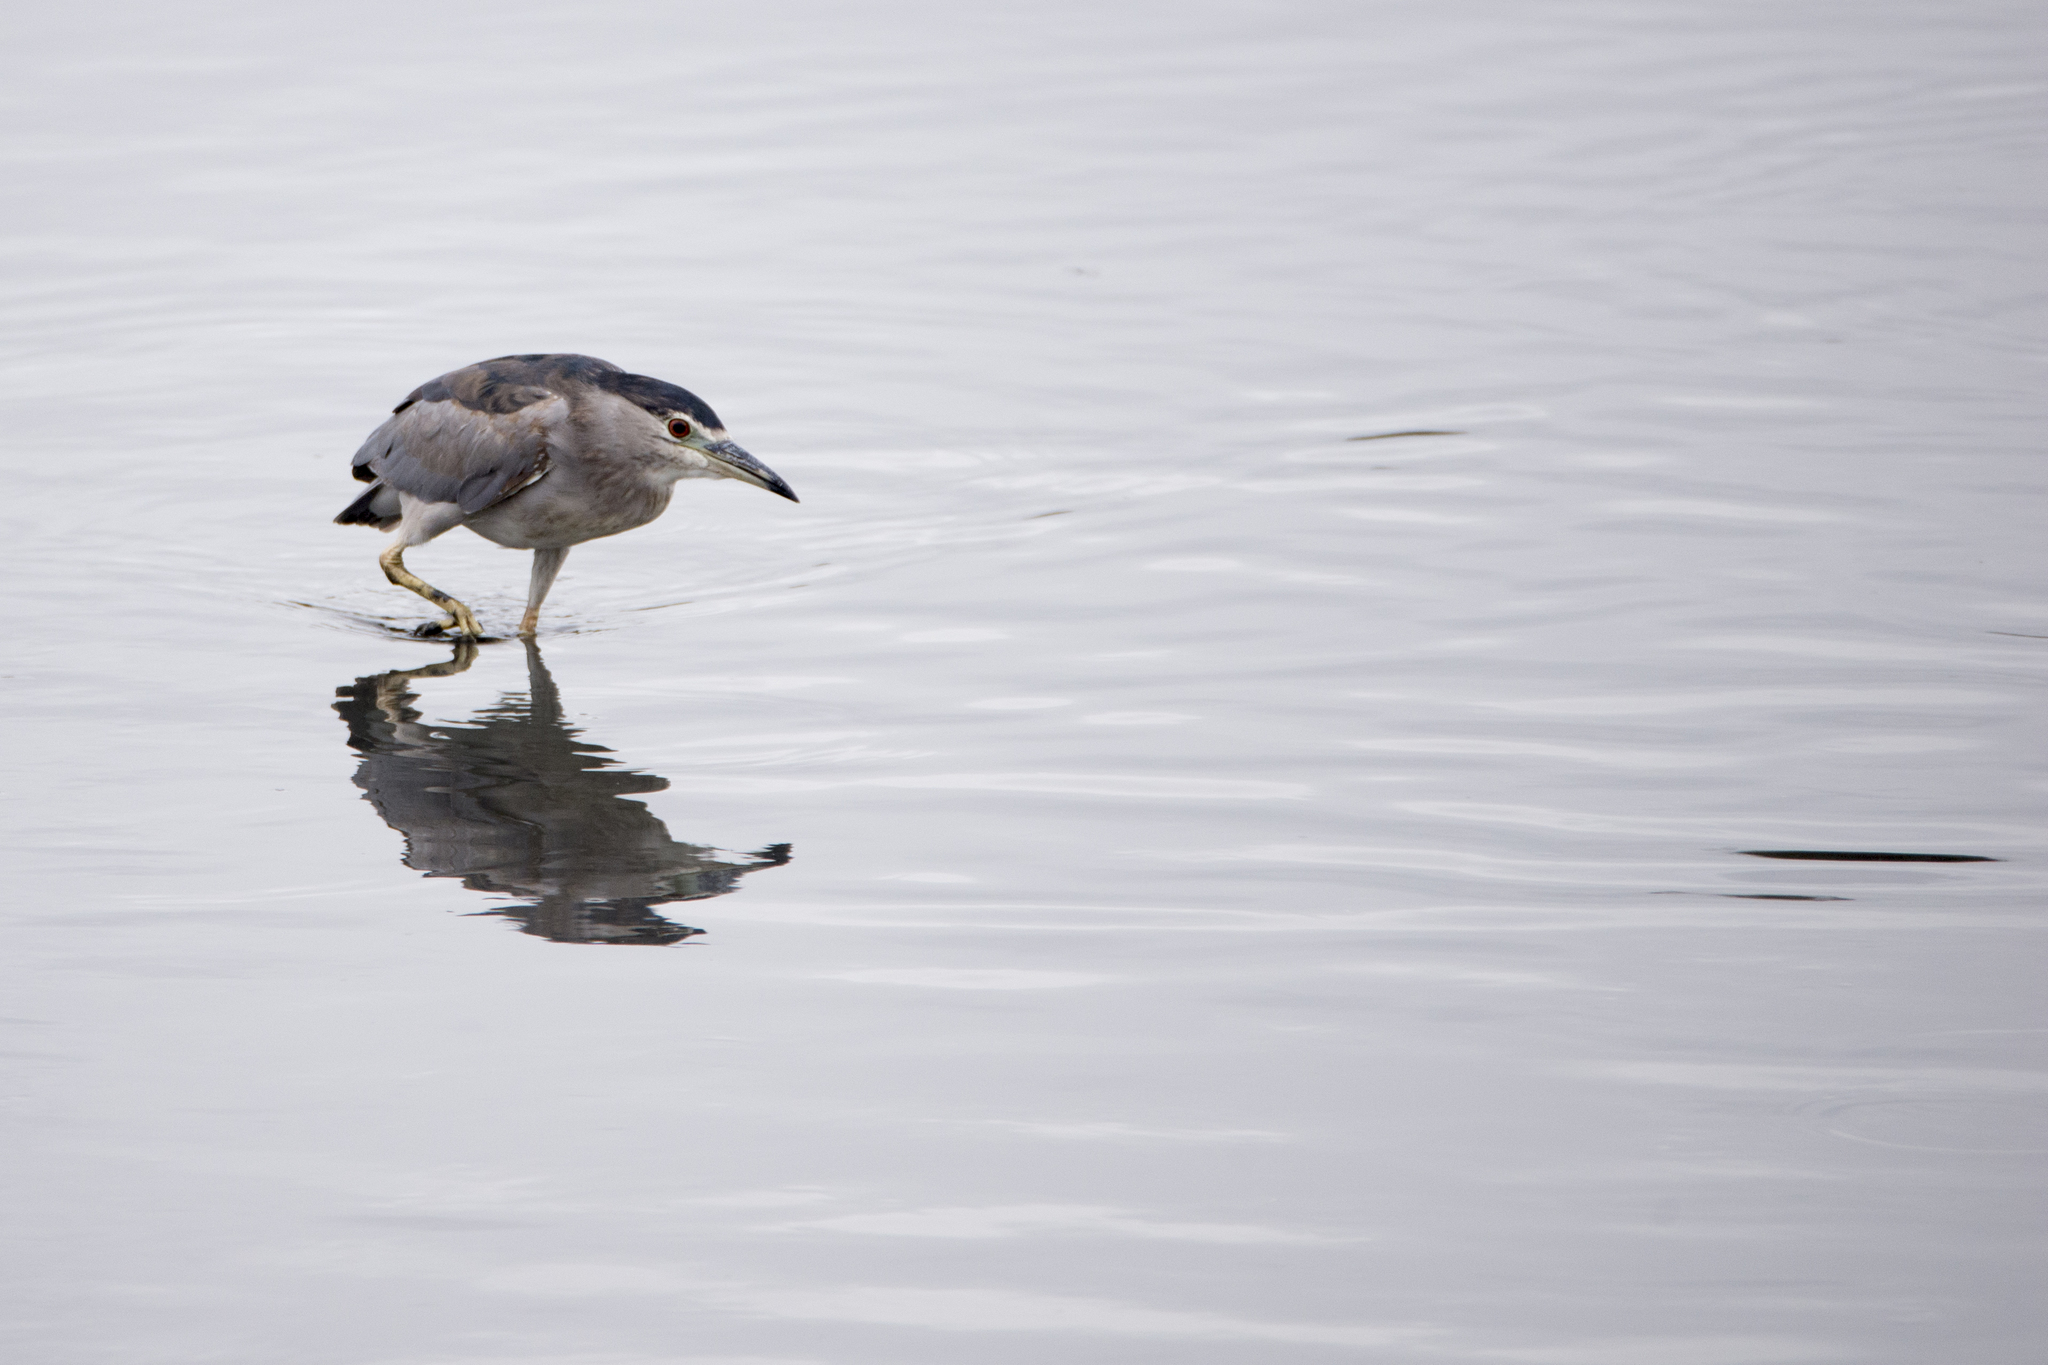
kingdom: Animalia
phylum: Chordata
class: Aves
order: Pelecaniformes
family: Ardeidae
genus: Nycticorax
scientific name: Nycticorax nycticorax
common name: Black-crowned night heron
